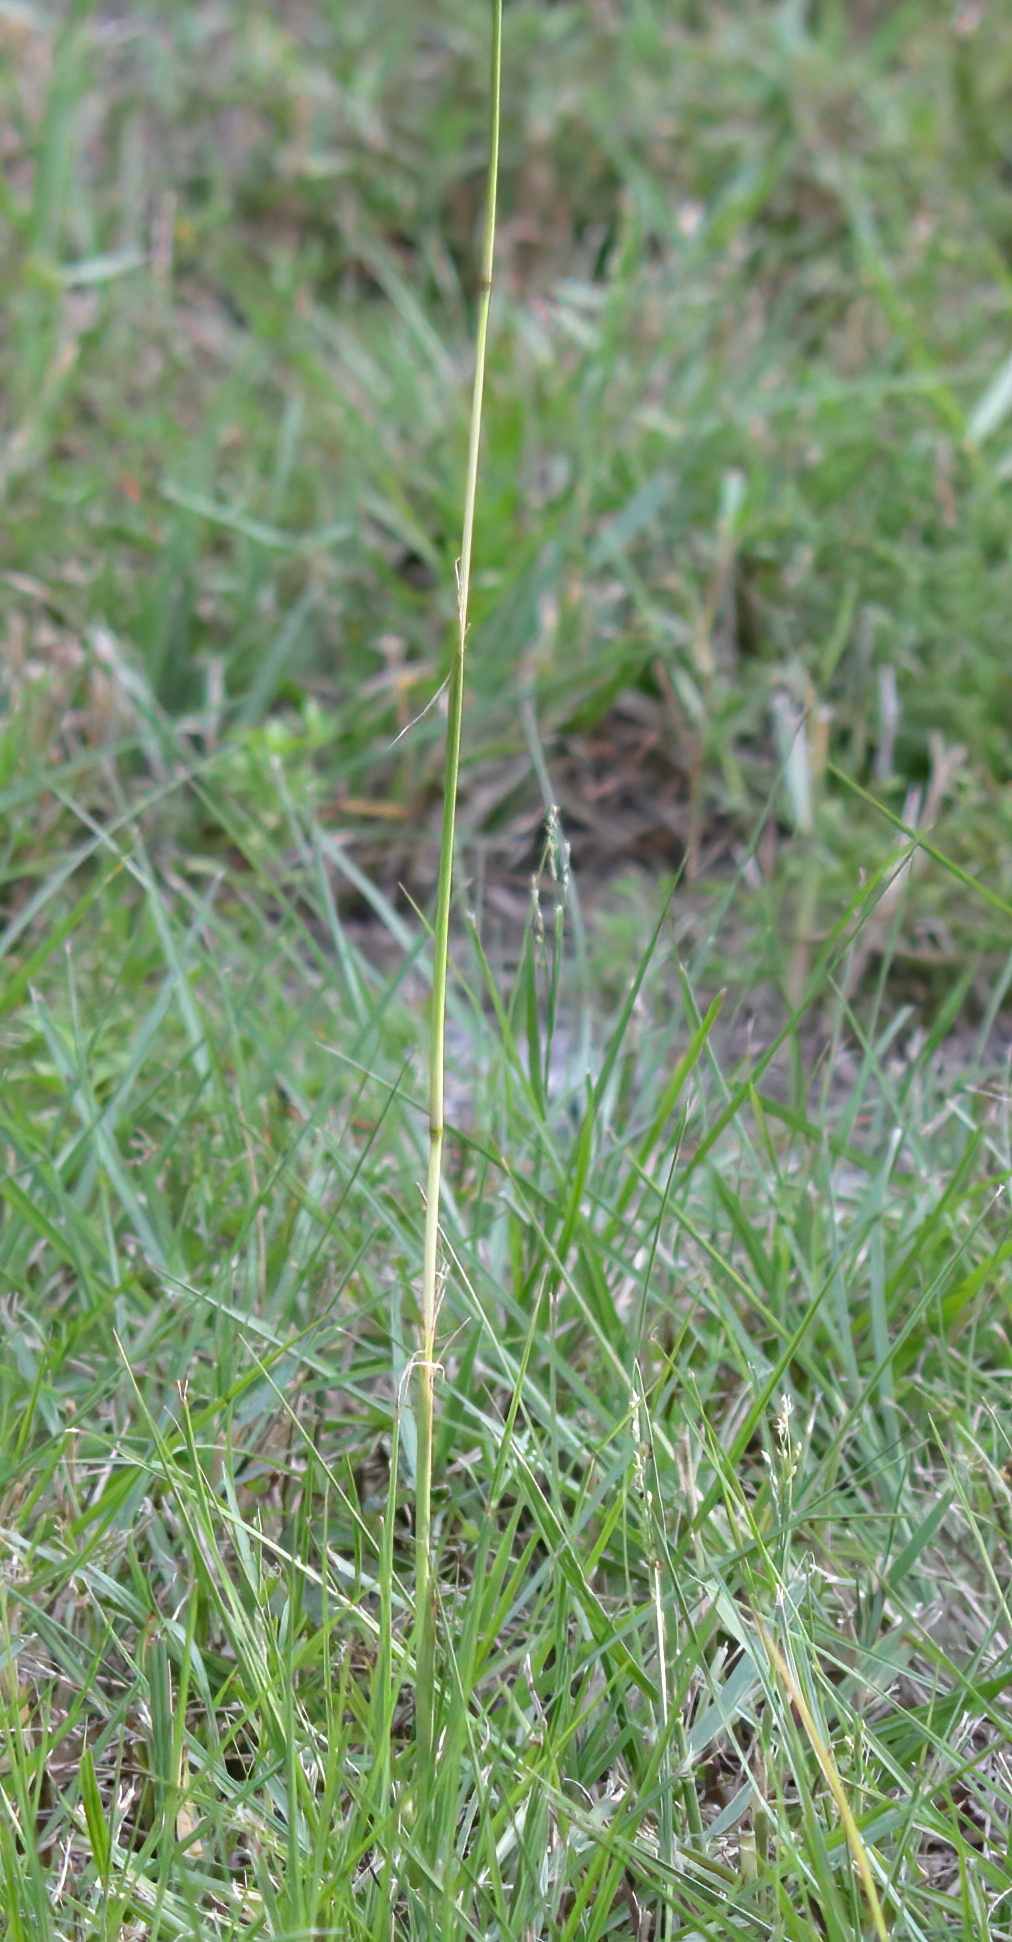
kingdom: Plantae
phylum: Tracheophyta
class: Liliopsida
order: Poales
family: Poaceae
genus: Paspalum
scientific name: Paspalum notatum
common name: Bahiagrass
